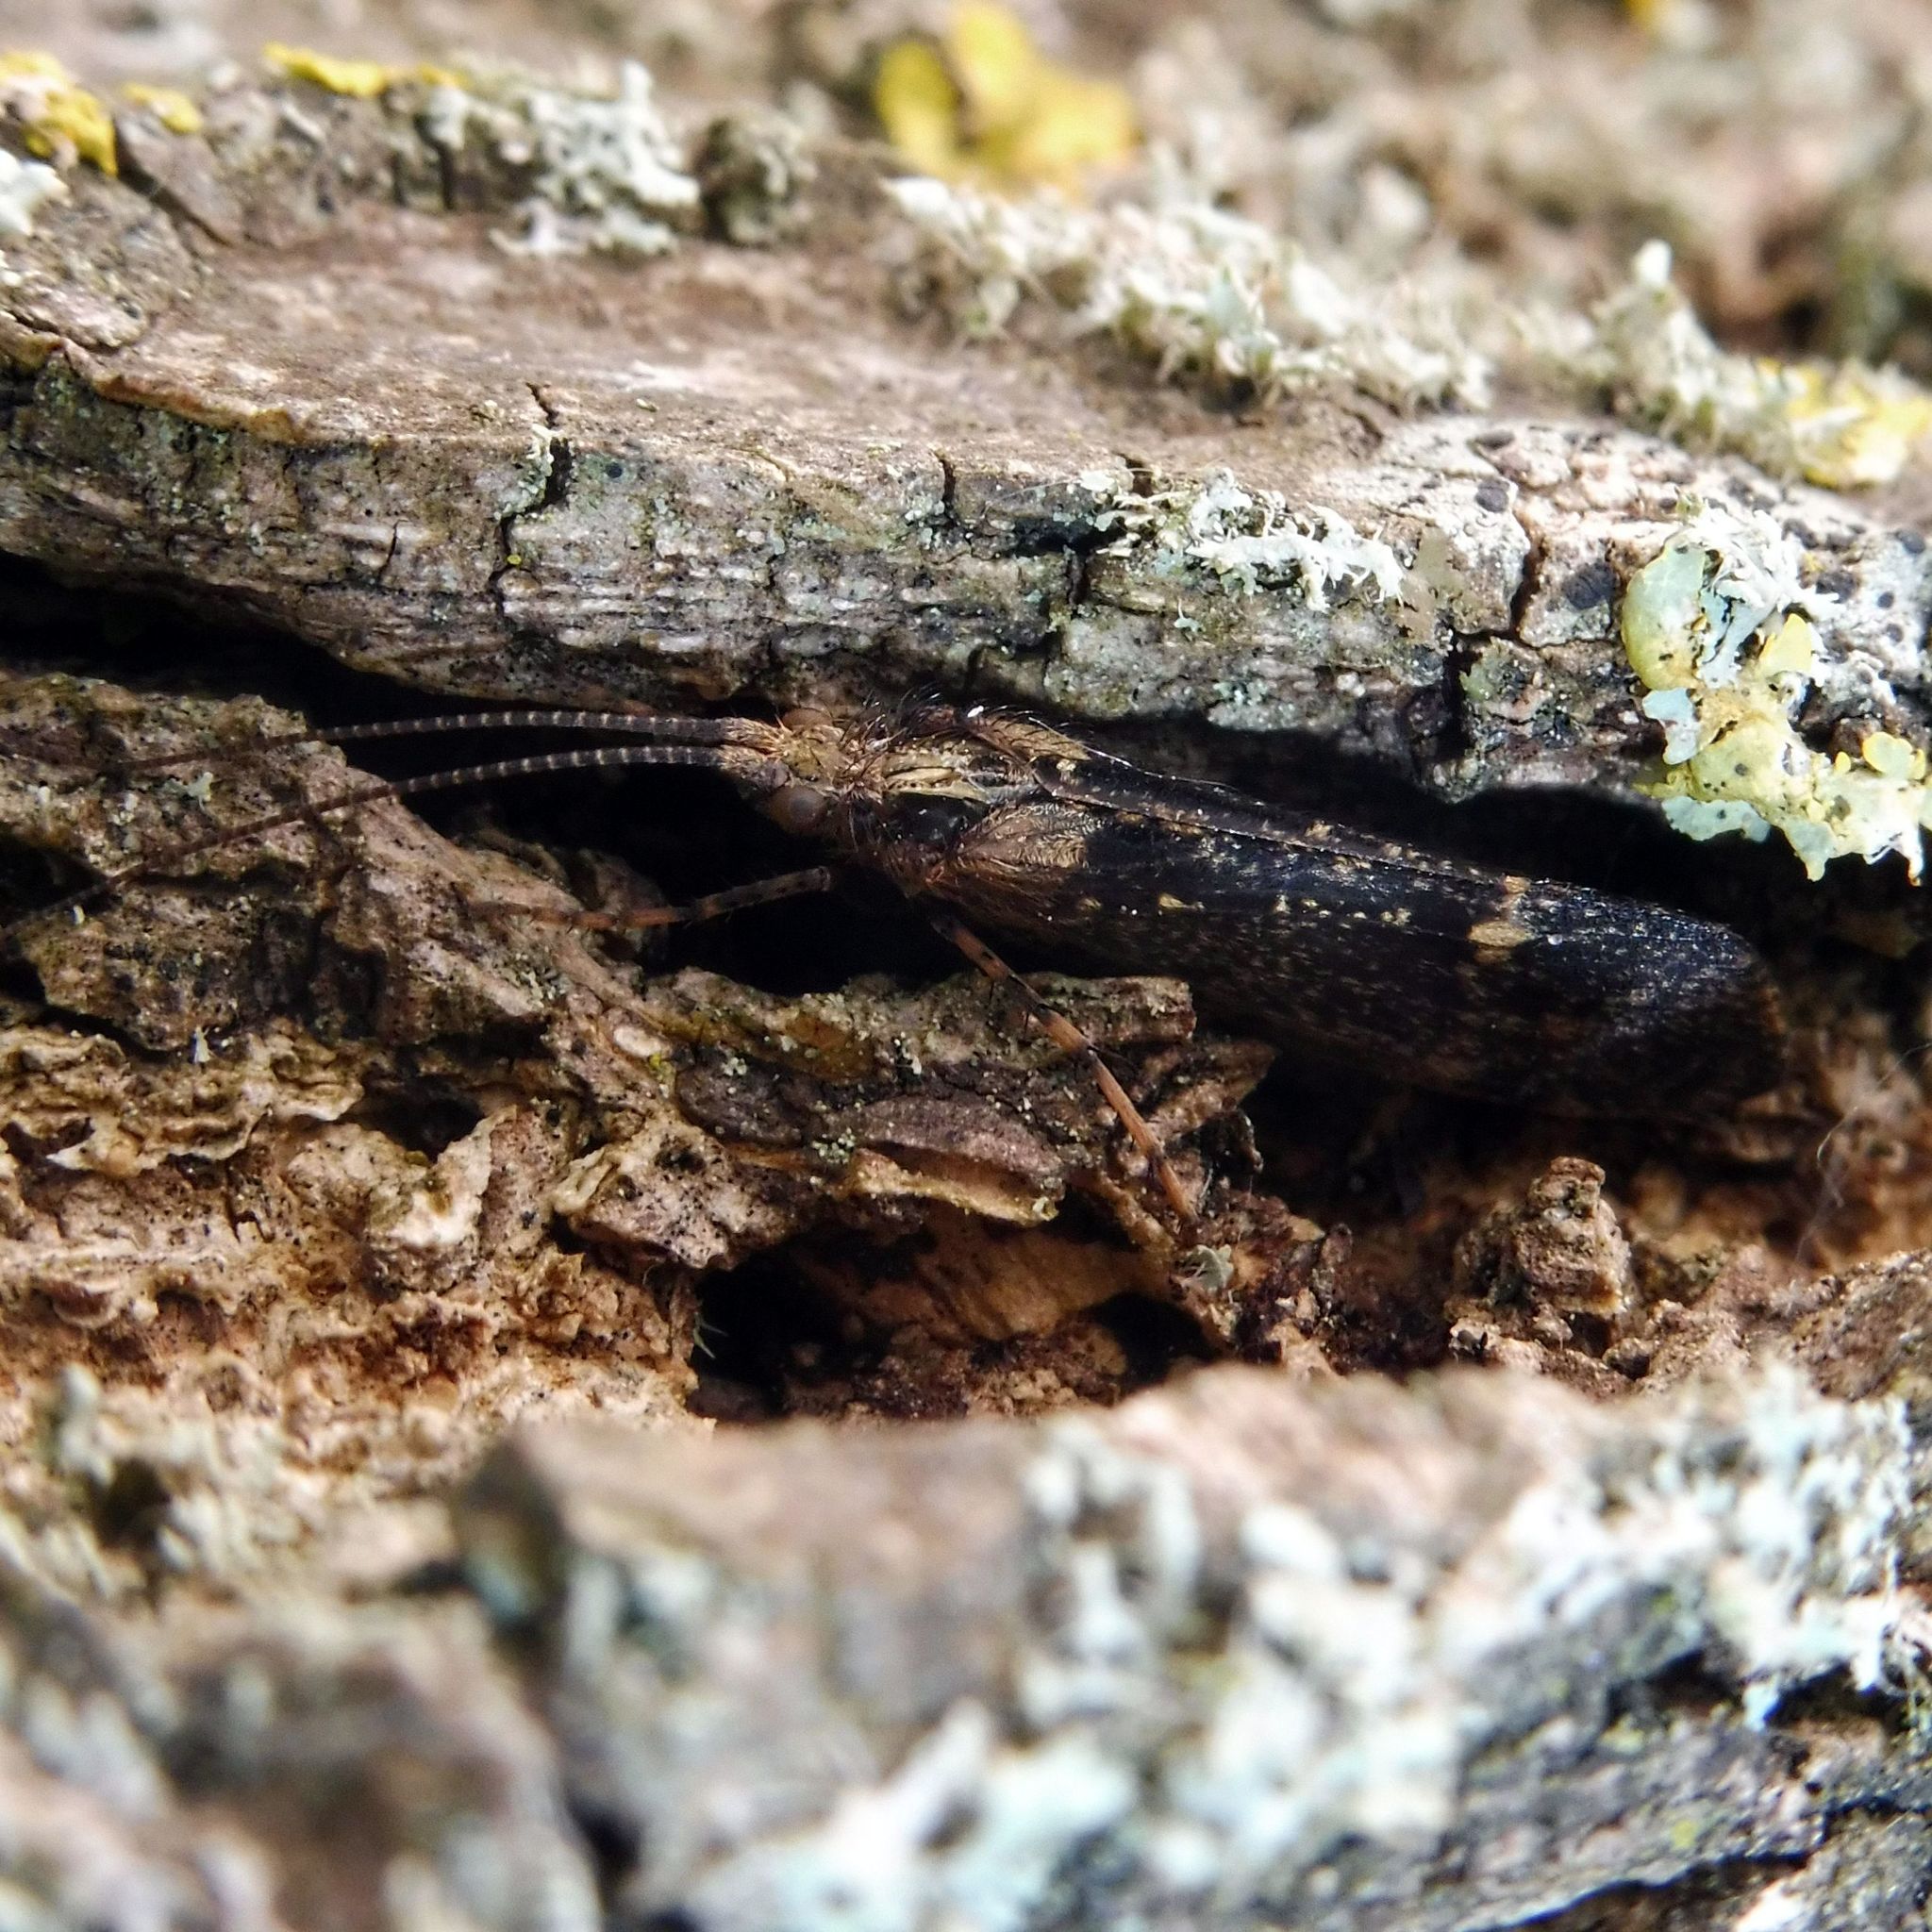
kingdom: Animalia
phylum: Arthropoda
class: Insecta
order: Trichoptera
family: Limnephilidae
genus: Limnephilus
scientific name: Limnephilus sparsus
